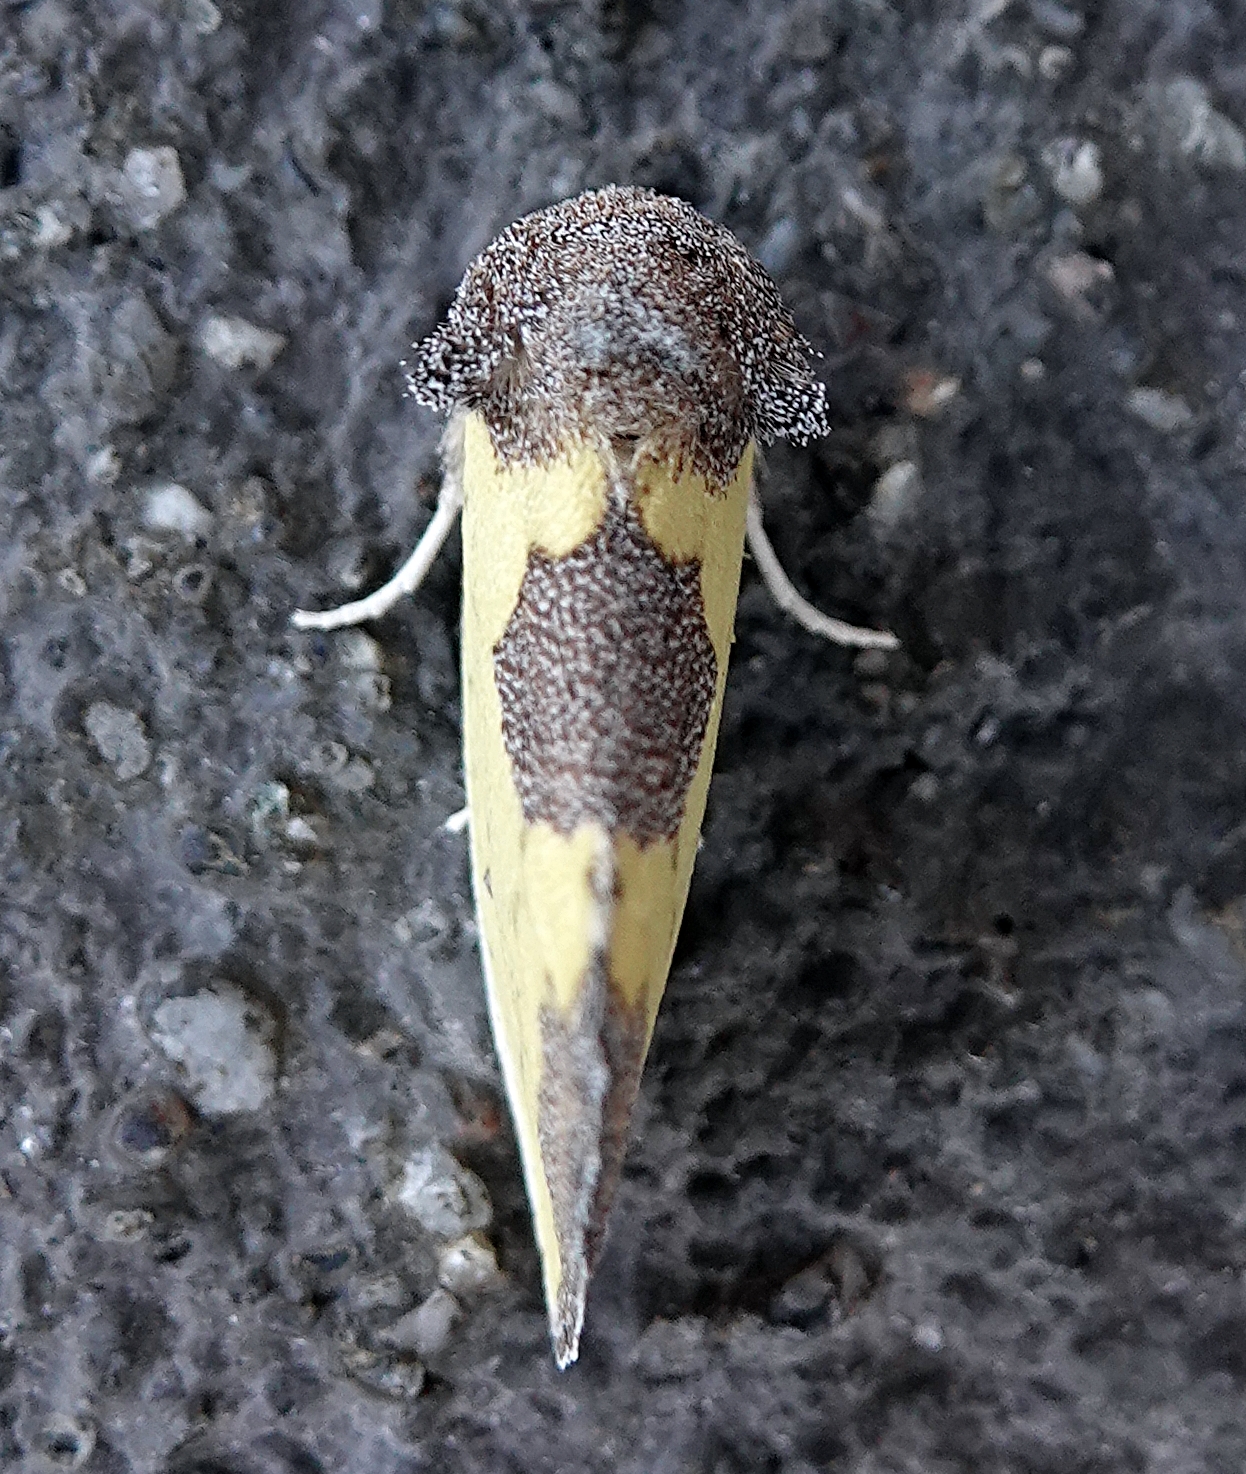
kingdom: Animalia
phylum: Arthropoda
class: Insecta
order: Lepidoptera
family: Noctuidae
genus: Stiria
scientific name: Stiria rugifrons
